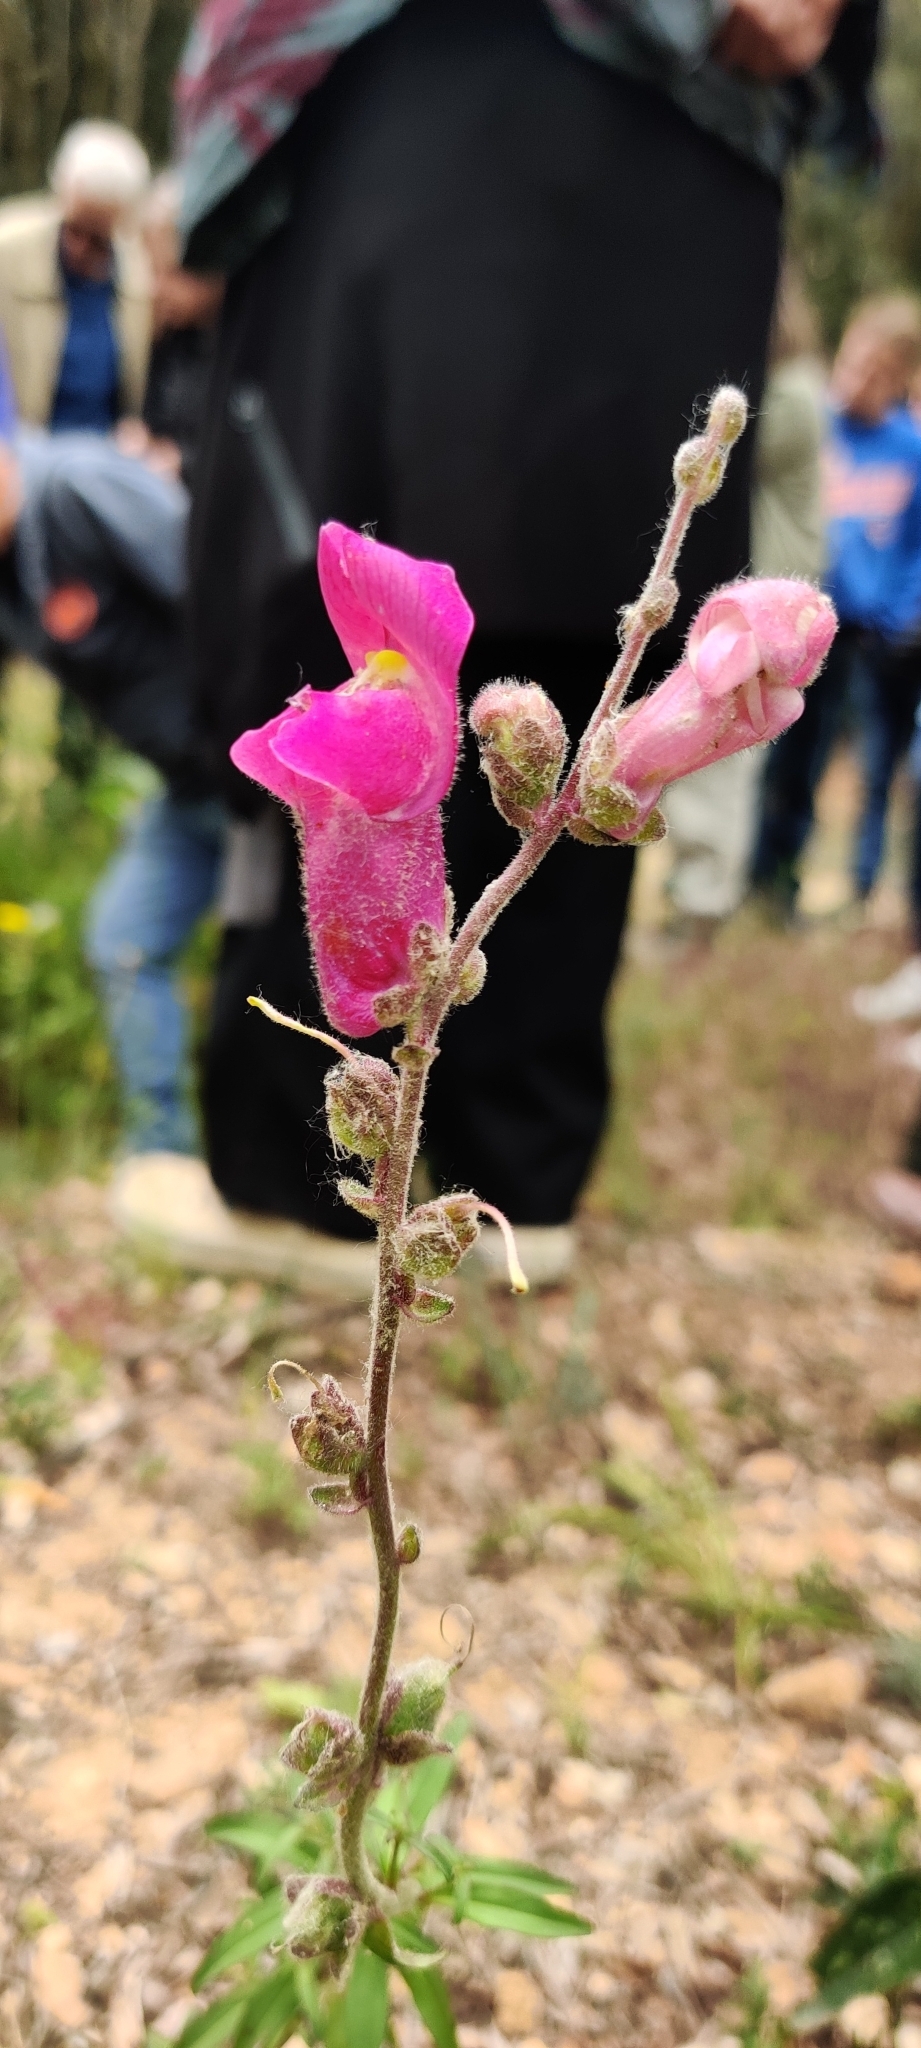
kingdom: Plantae
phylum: Tracheophyta
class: Magnoliopsida
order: Lamiales
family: Plantaginaceae
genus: Antirrhinum
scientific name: Antirrhinum majus
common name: Snapdragon
